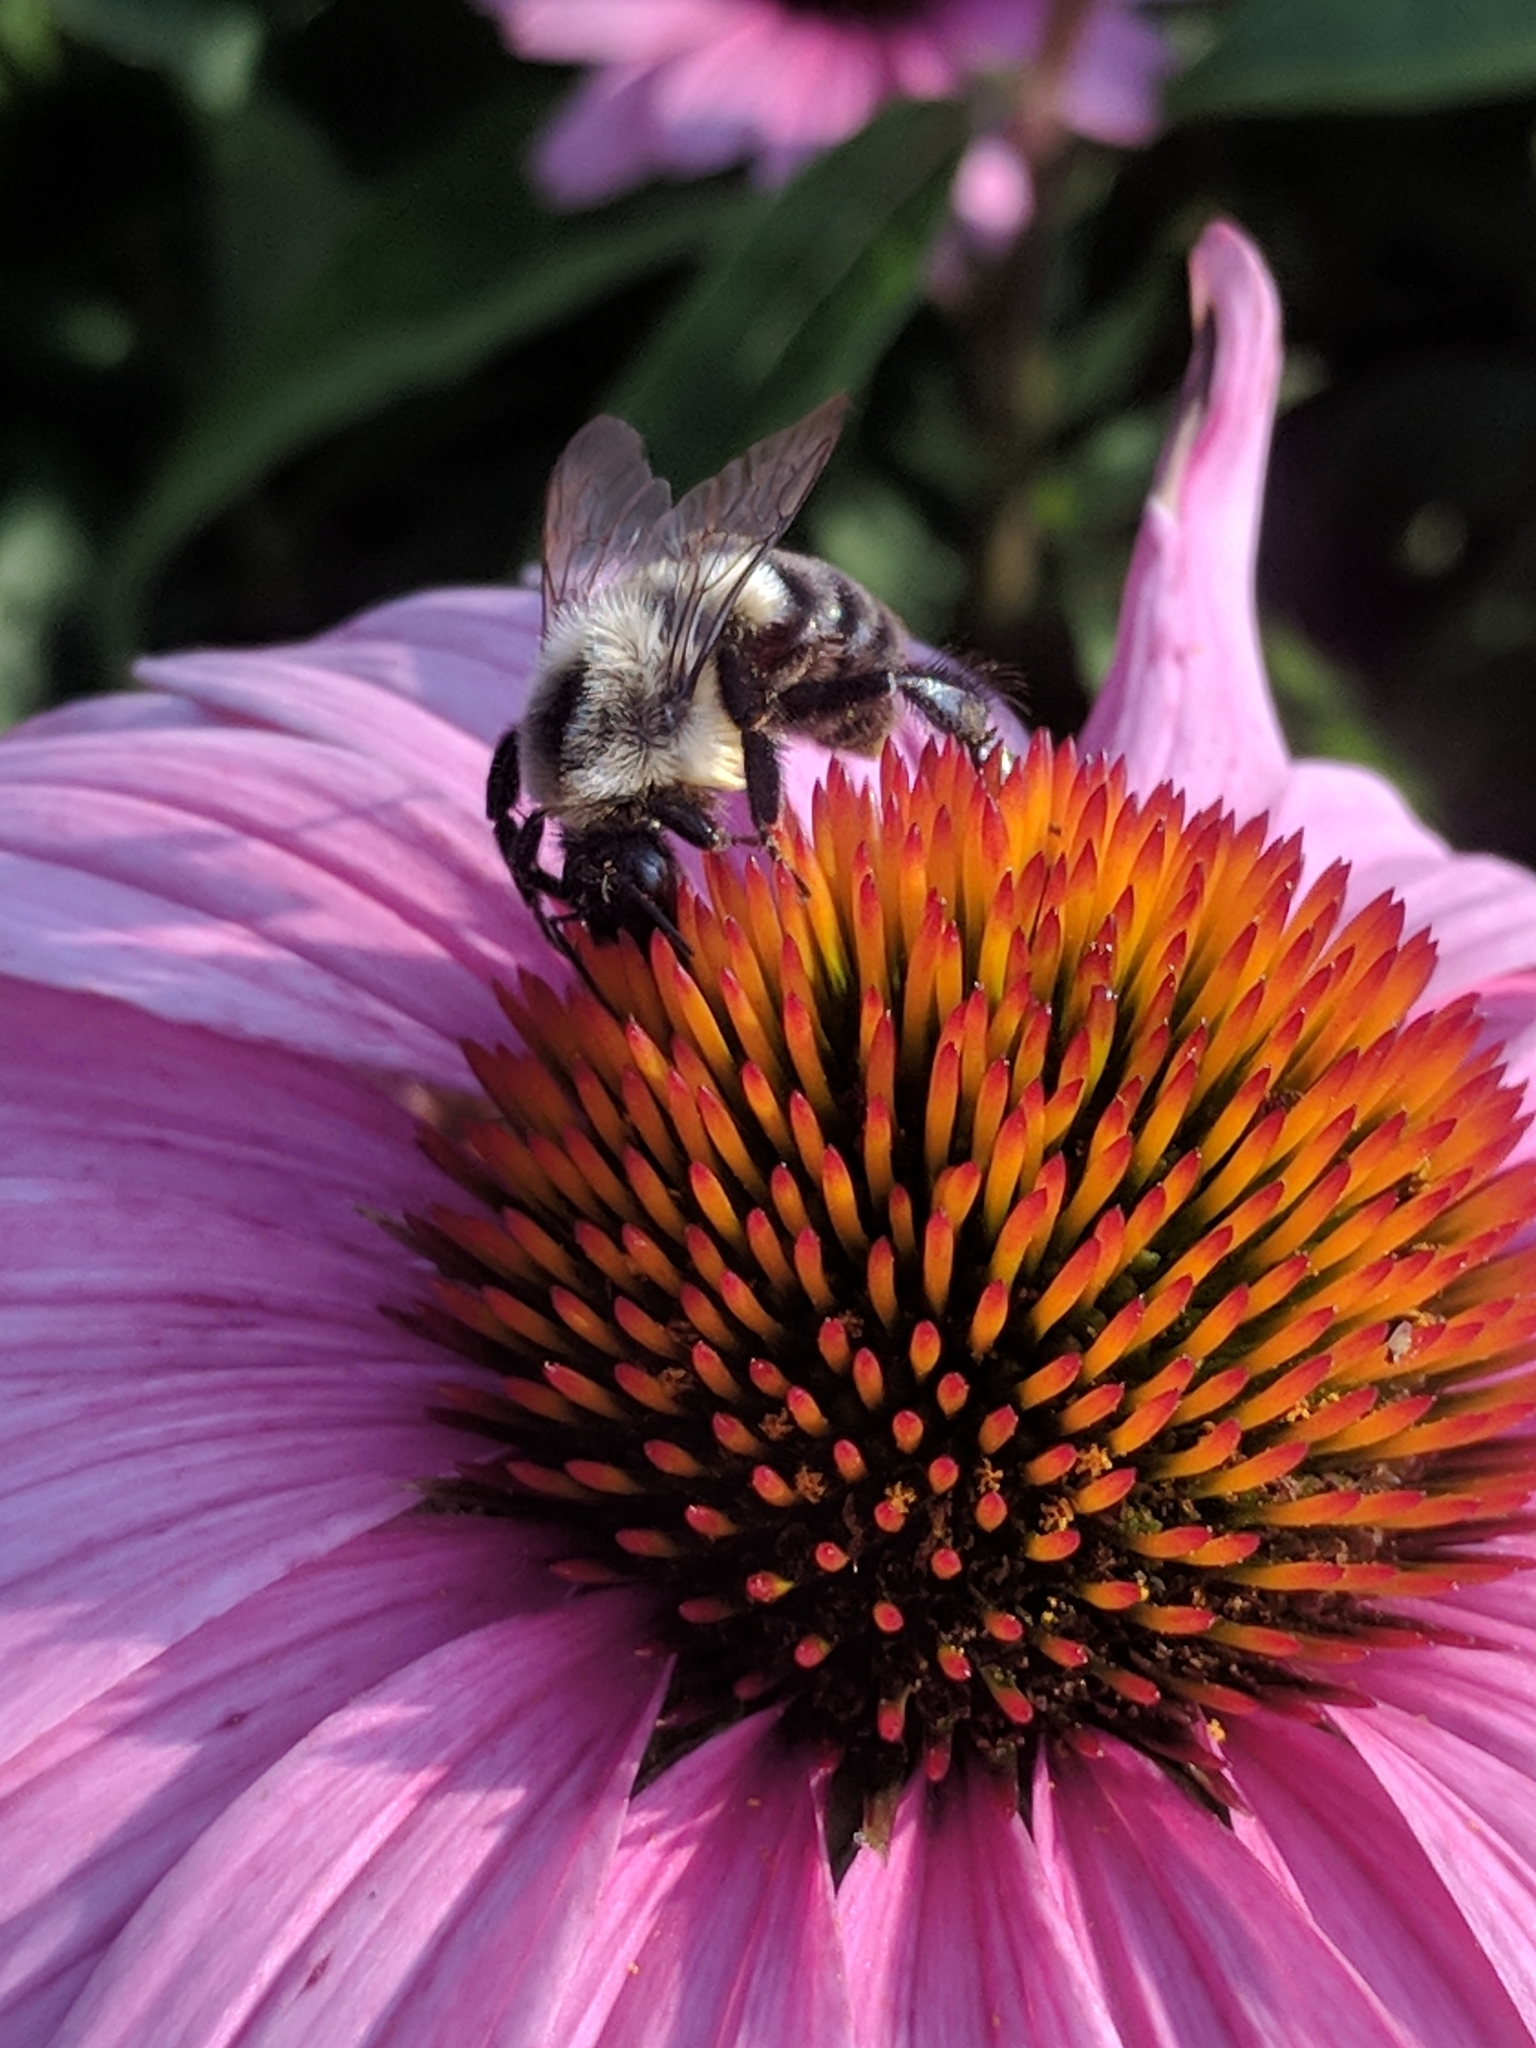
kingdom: Animalia
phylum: Arthropoda
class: Insecta
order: Hymenoptera
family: Apidae
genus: Bombus
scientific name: Bombus impatiens
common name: Common eastern bumble bee
